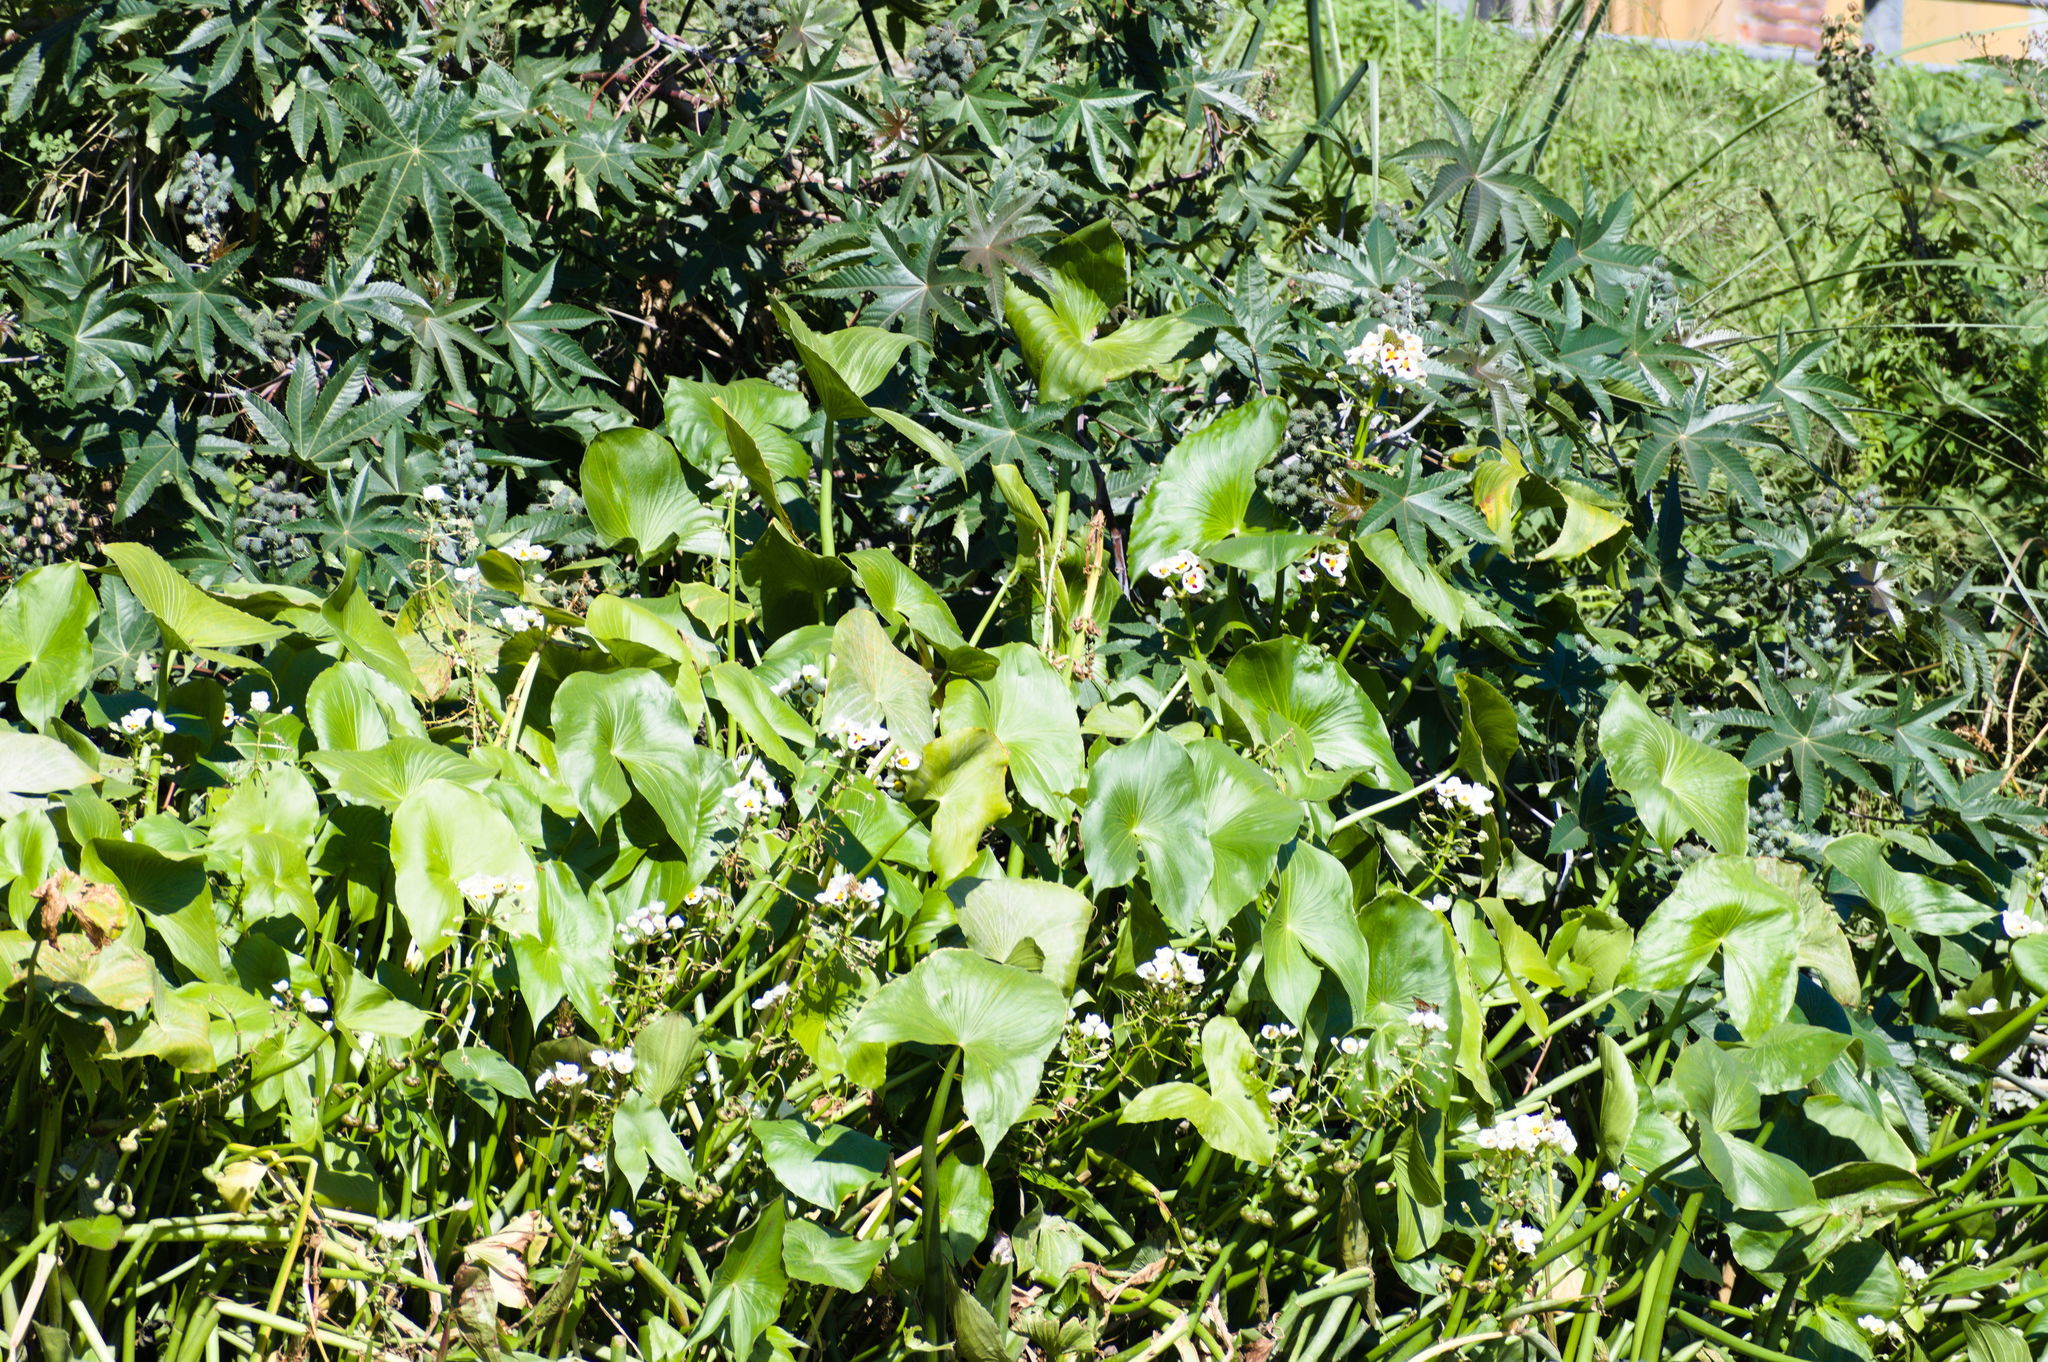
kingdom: Plantae
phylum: Tracheophyta
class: Liliopsida
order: Alismatales
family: Alismataceae
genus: Sagittaria
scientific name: Sagittaria montevidensis
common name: Giant arrowhead
